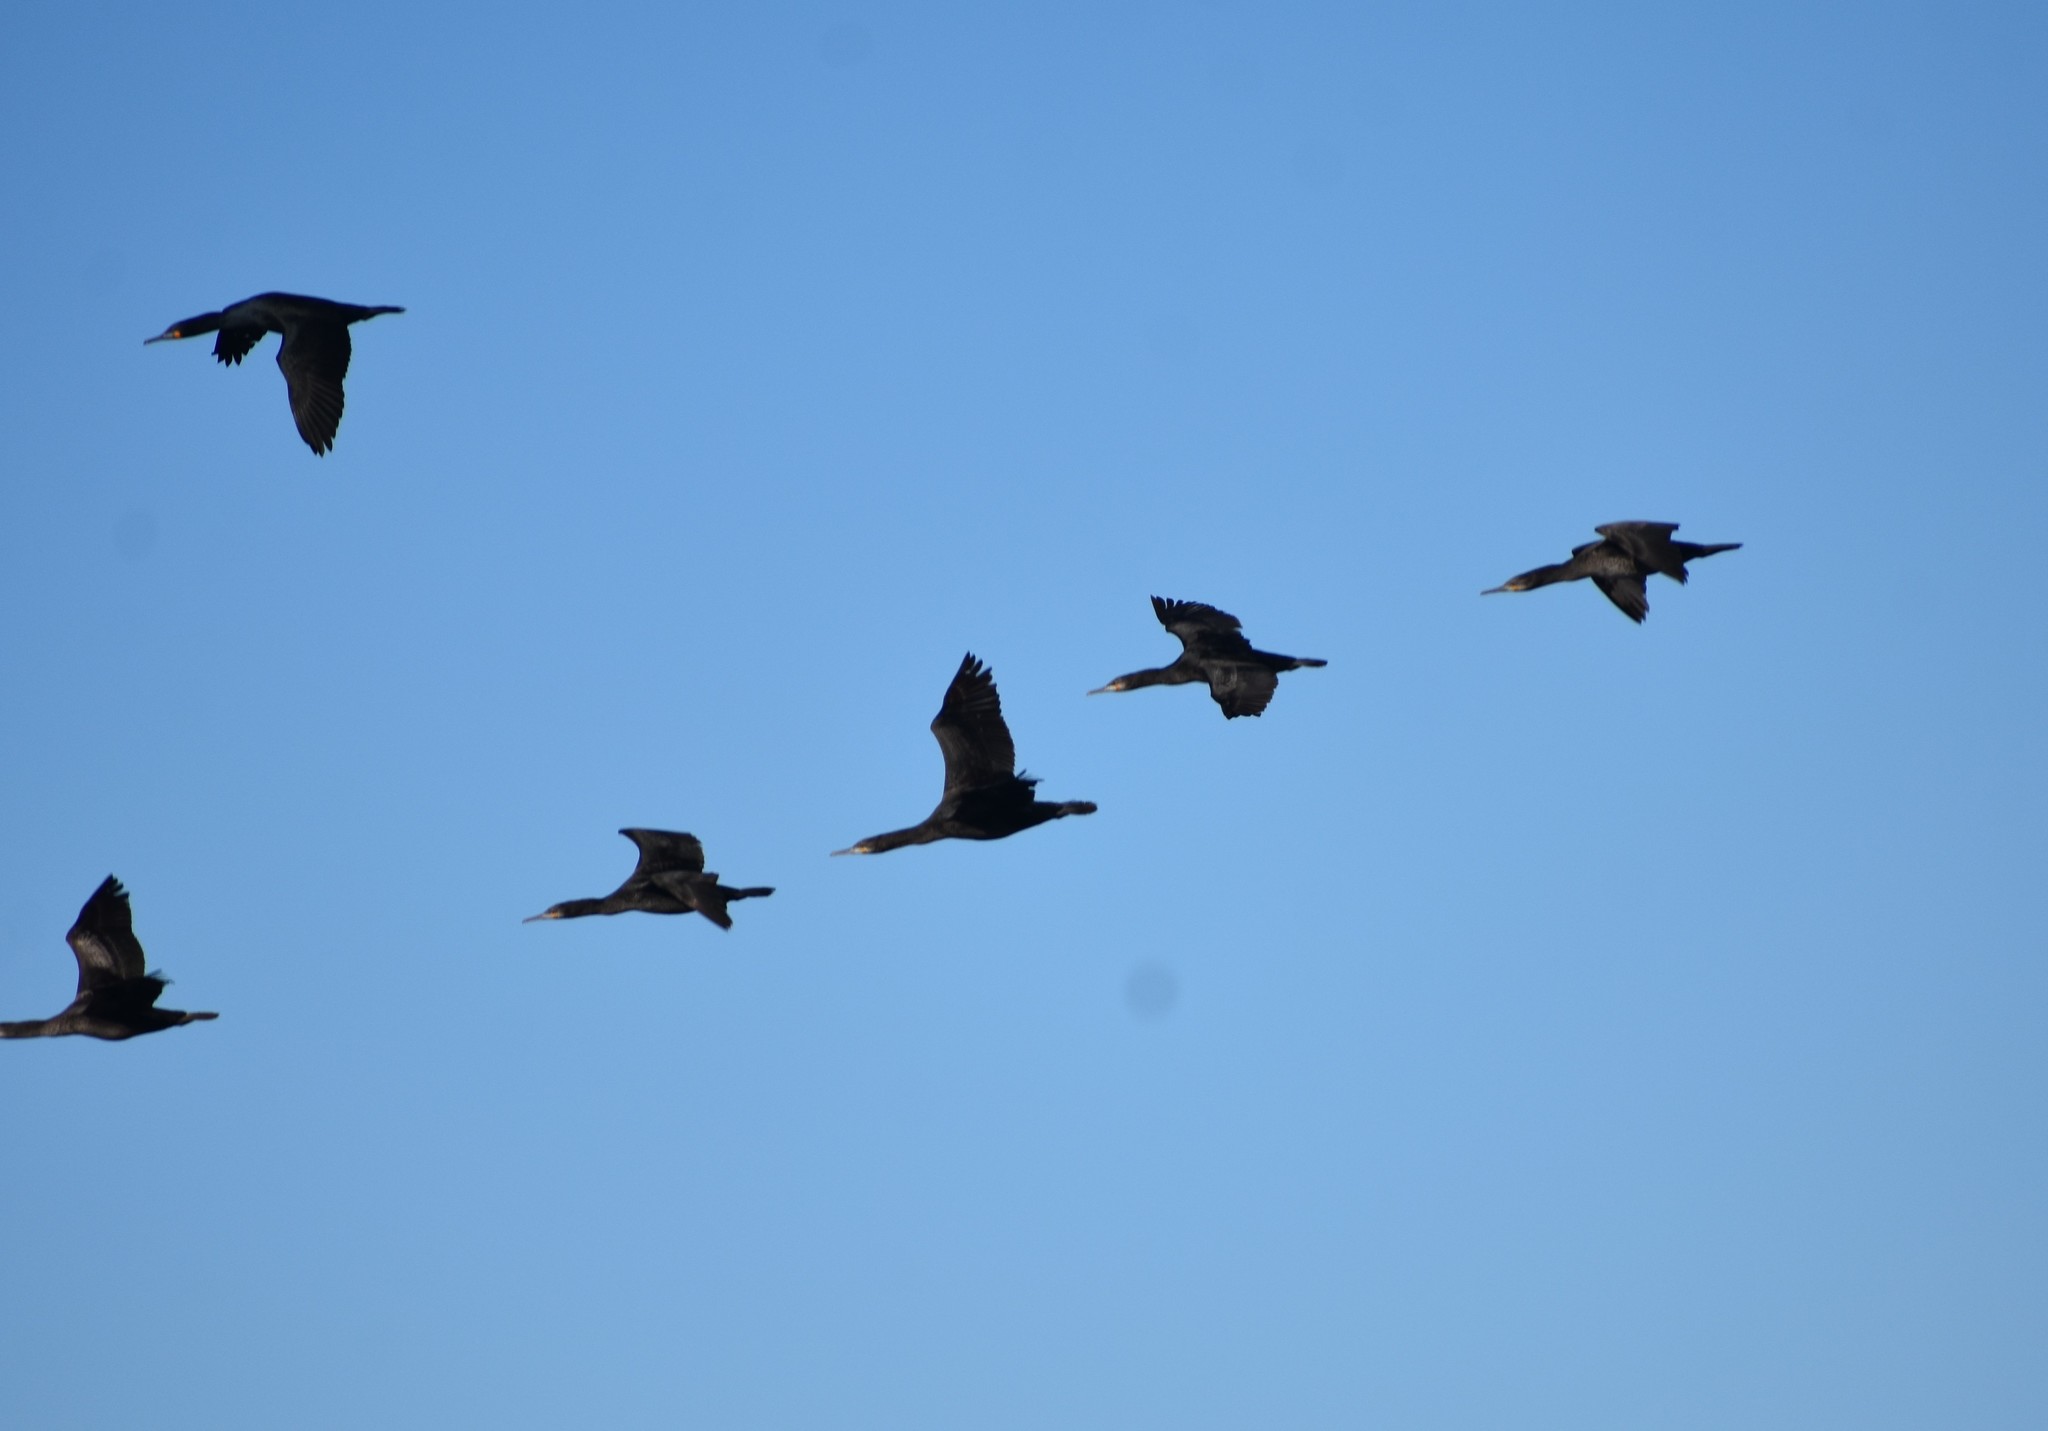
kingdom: Animalia
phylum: Chordata
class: Aves
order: Suliformes
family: Phalacrocoracidae
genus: Phalacrocorax
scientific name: Phalacrocorax capensis
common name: Cape cormorant
